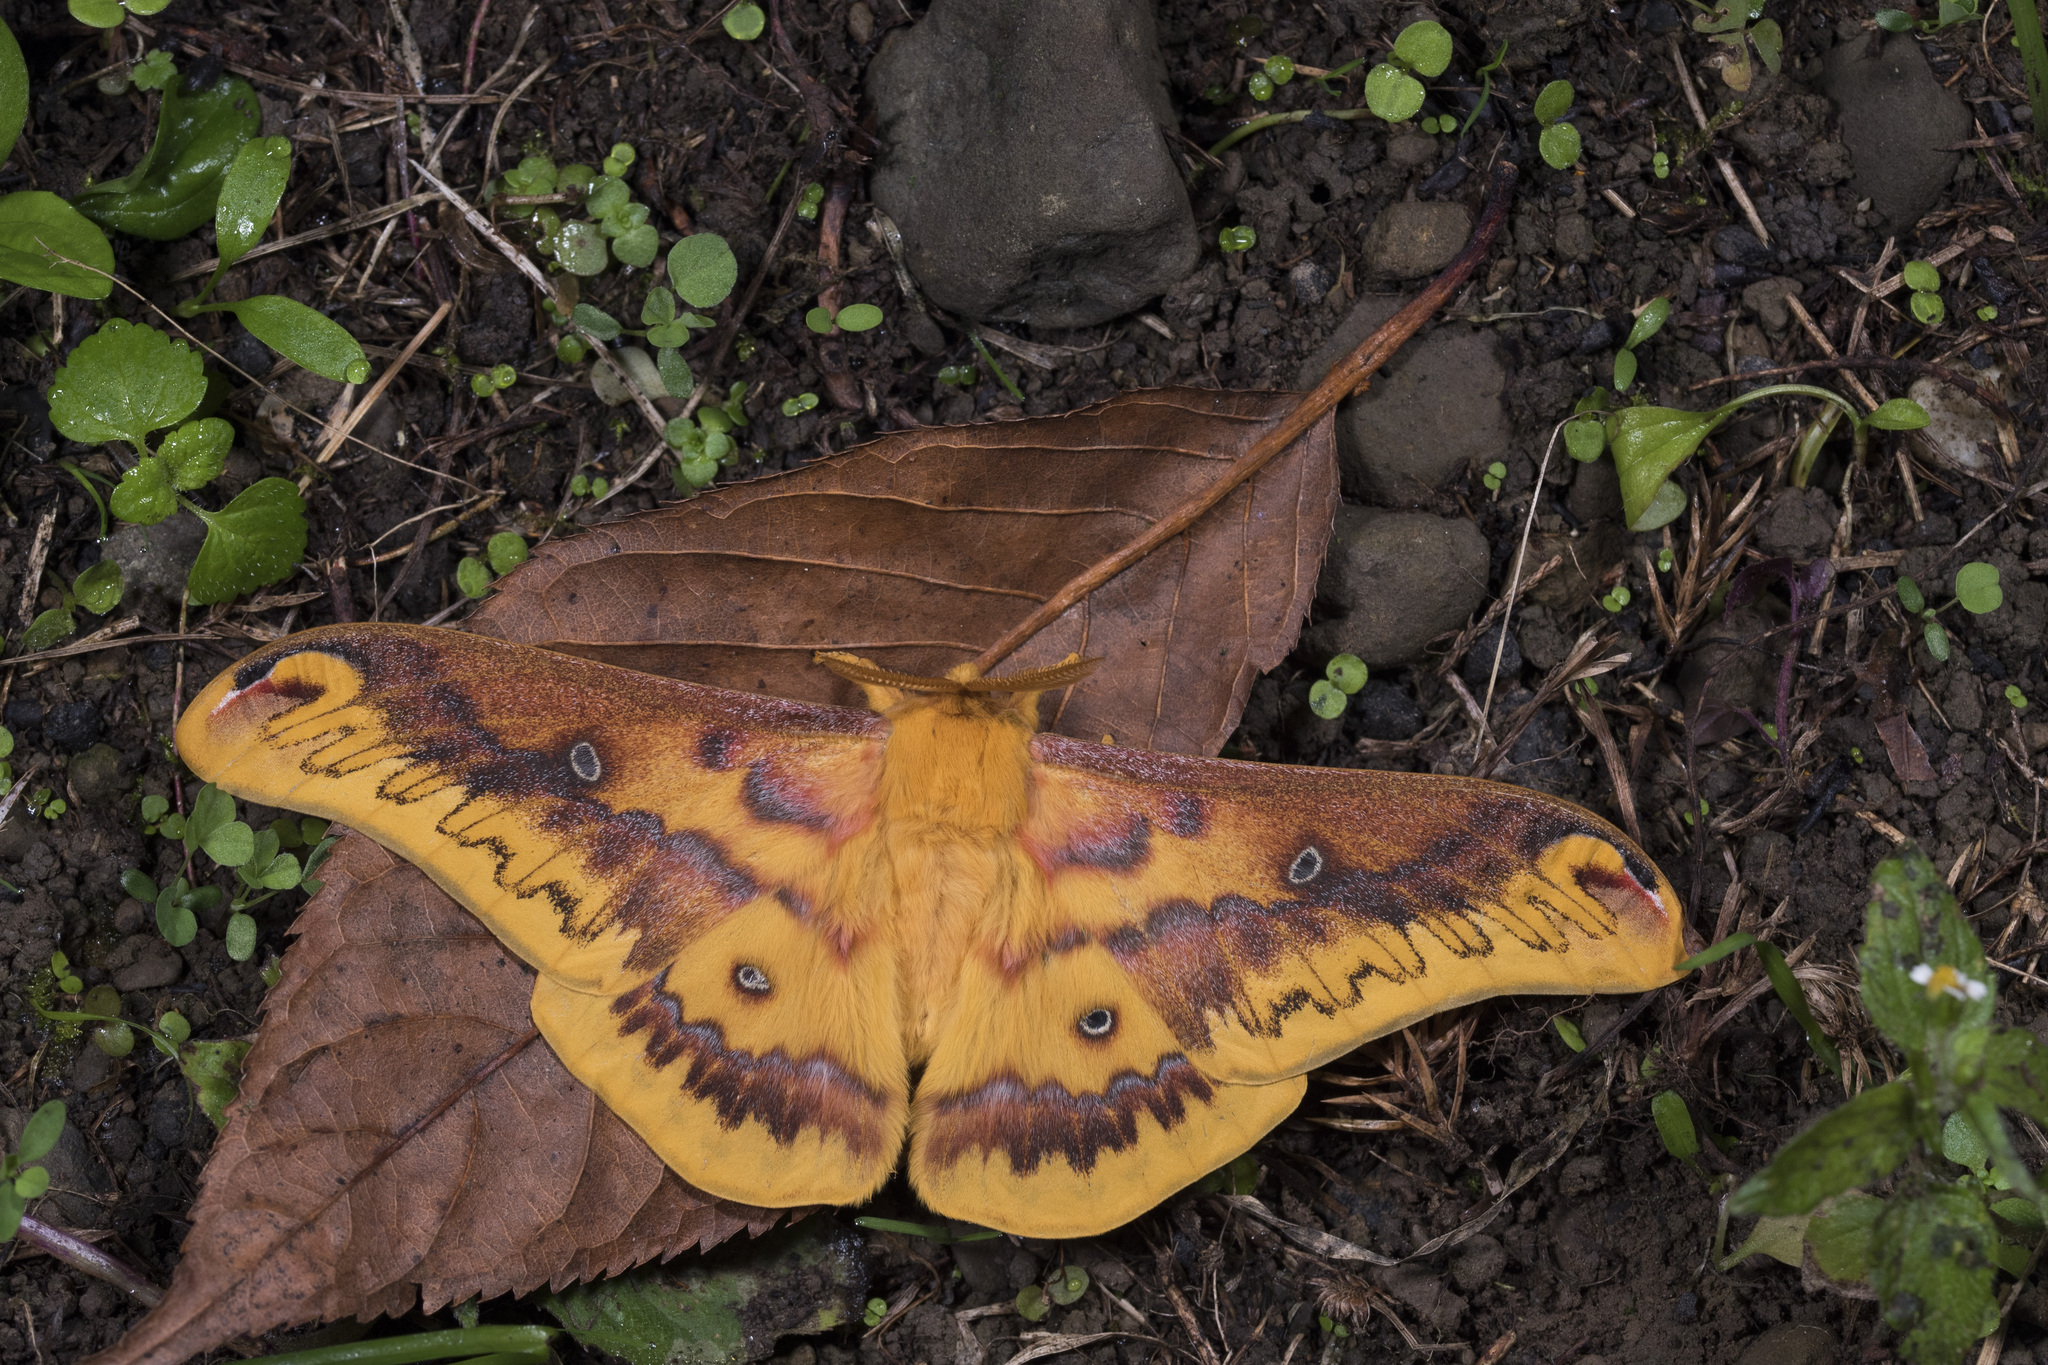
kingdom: Animalia
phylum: Arthropoda
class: Insecta
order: Lepidoptera
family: Saturniidae
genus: Rhodinia
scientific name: Rhodinia verecunda
